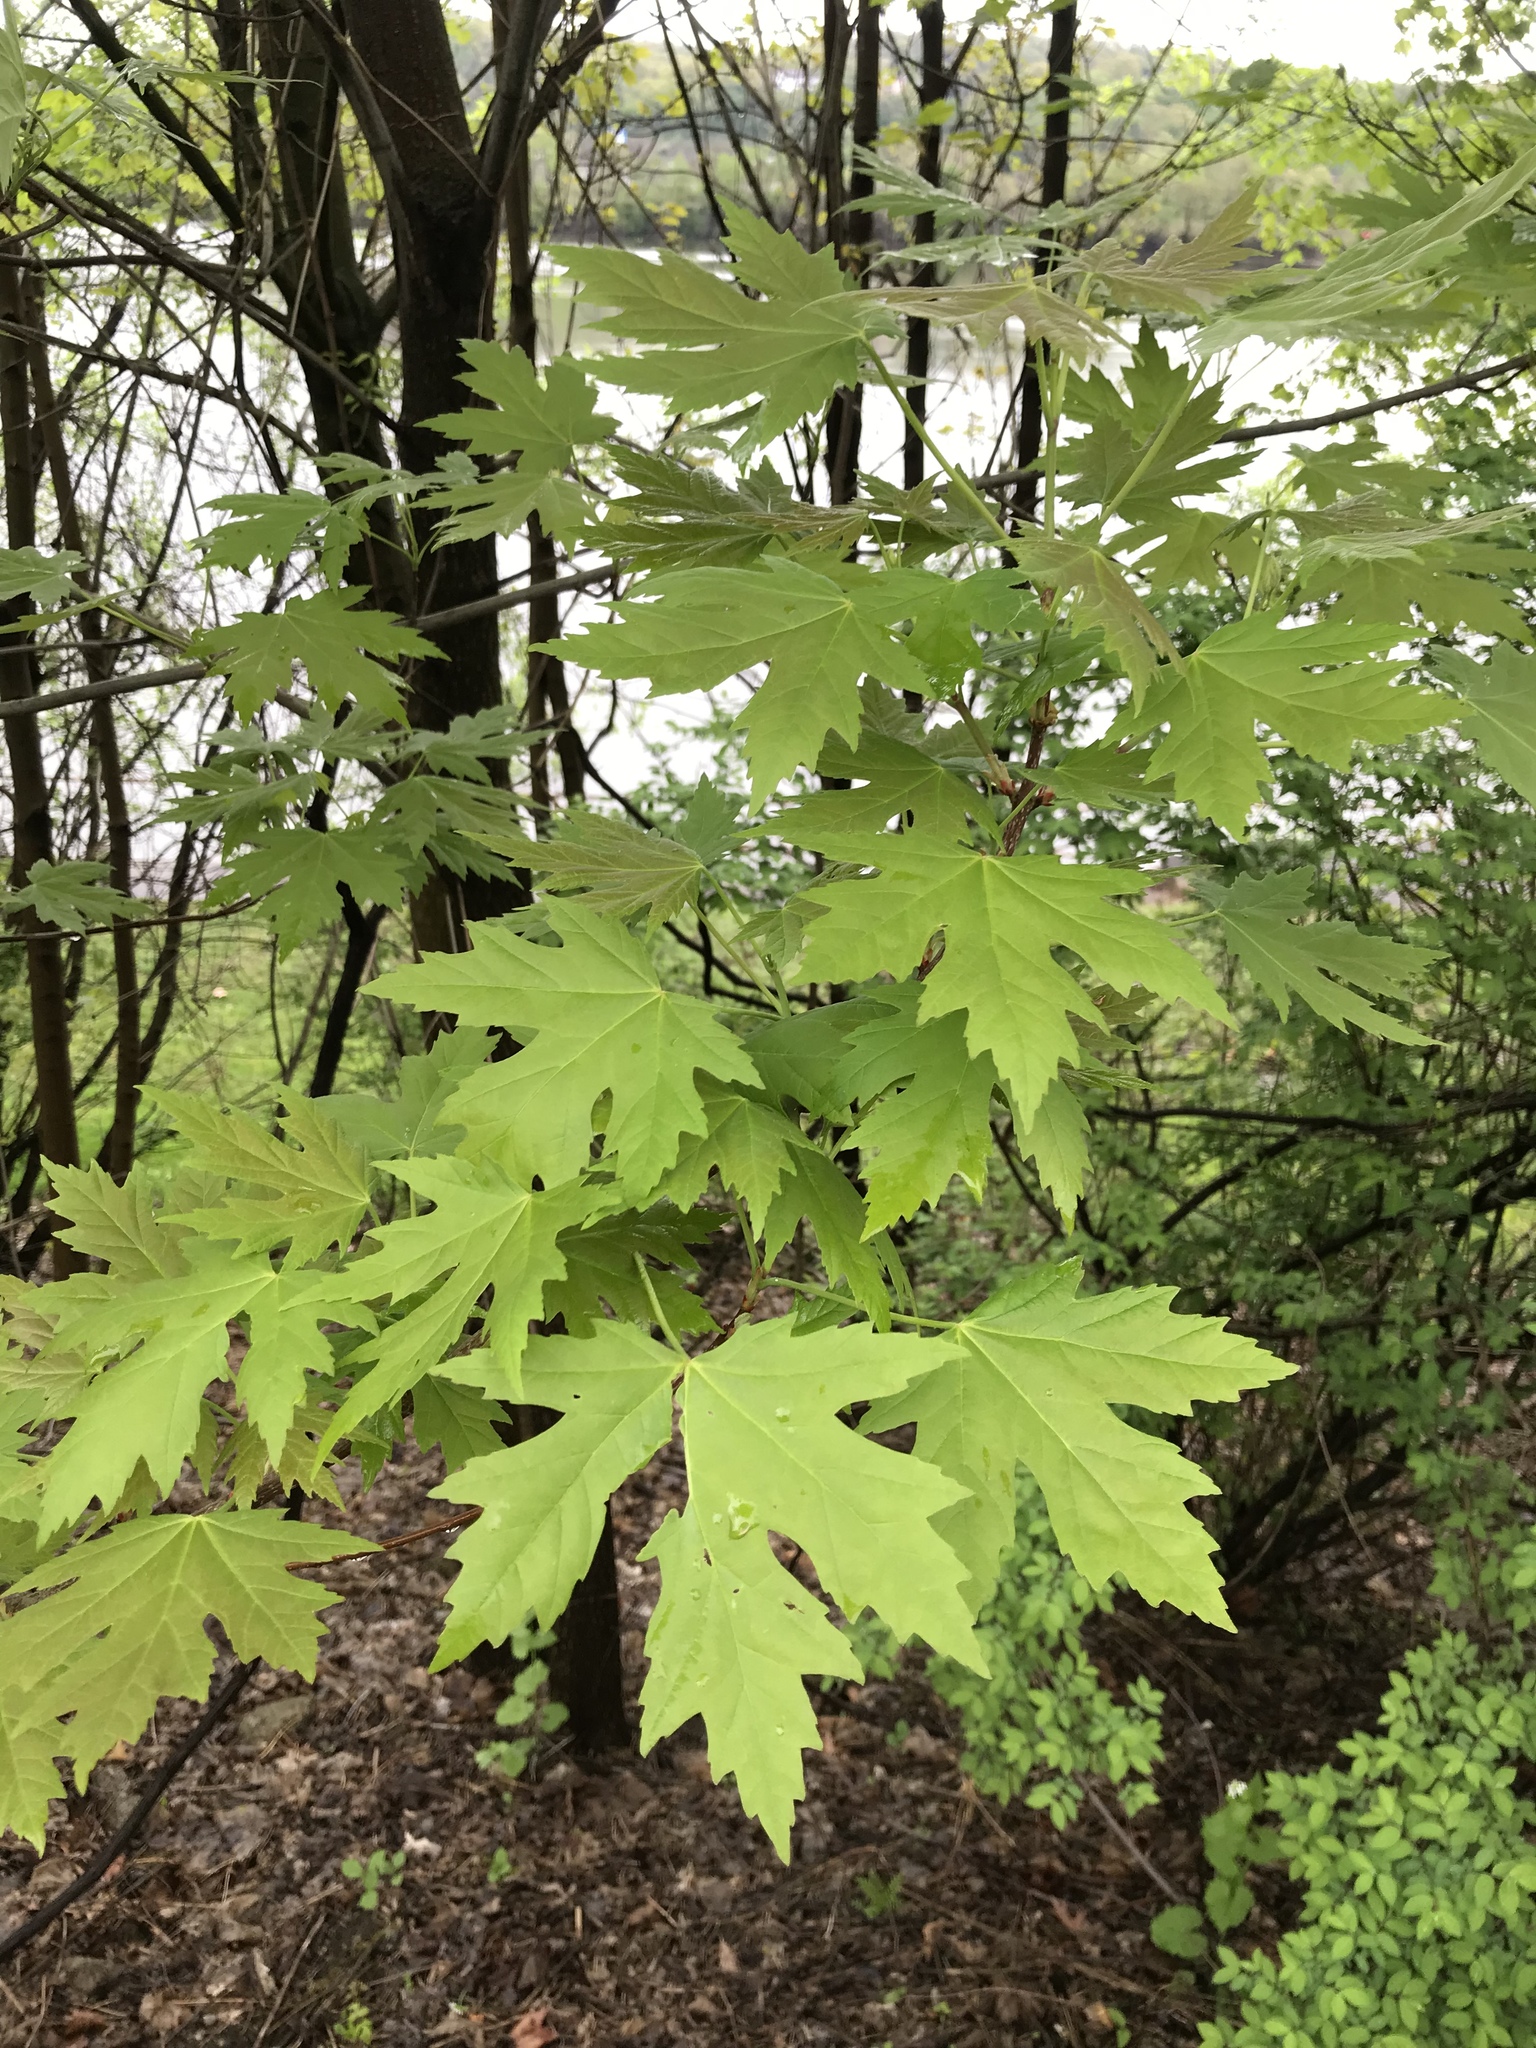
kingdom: Plantae
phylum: Tracheophyta
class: Magnoliopsida
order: Sapindales
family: Sapindaceae
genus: Acer
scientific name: Acer saccharinum
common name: Silver maple
